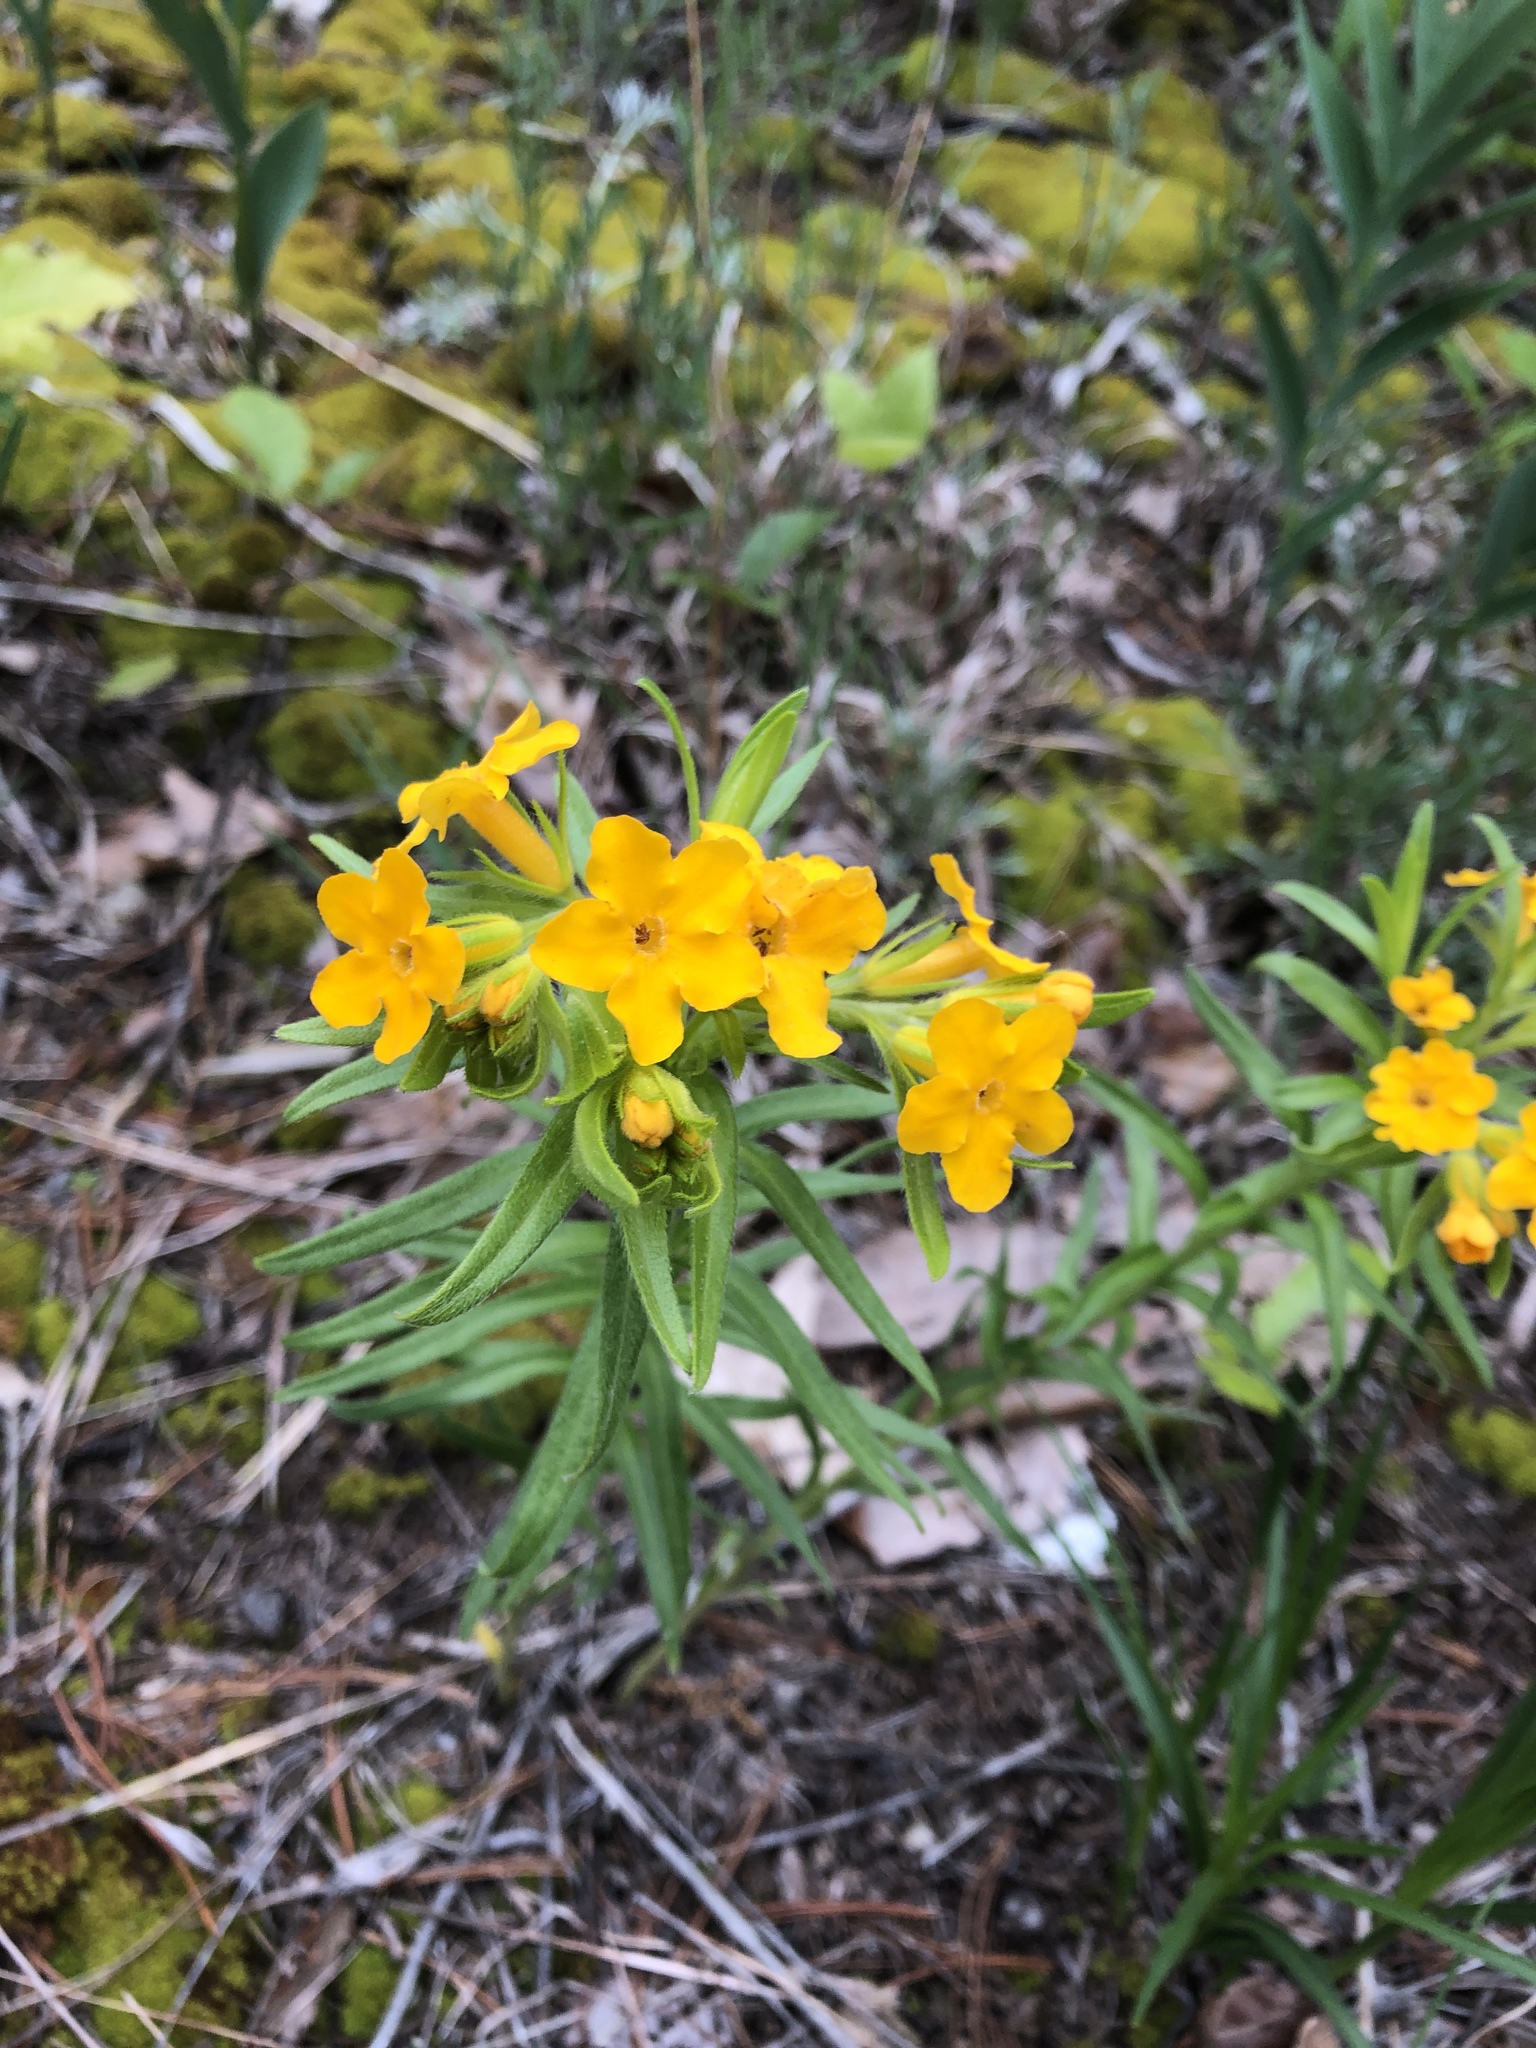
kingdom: Plantae
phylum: Tracheophyta
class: Magnoliopsida
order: Boraginales
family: Boraginaceae
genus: Lithospermum
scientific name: Lithospermum caroliniense
